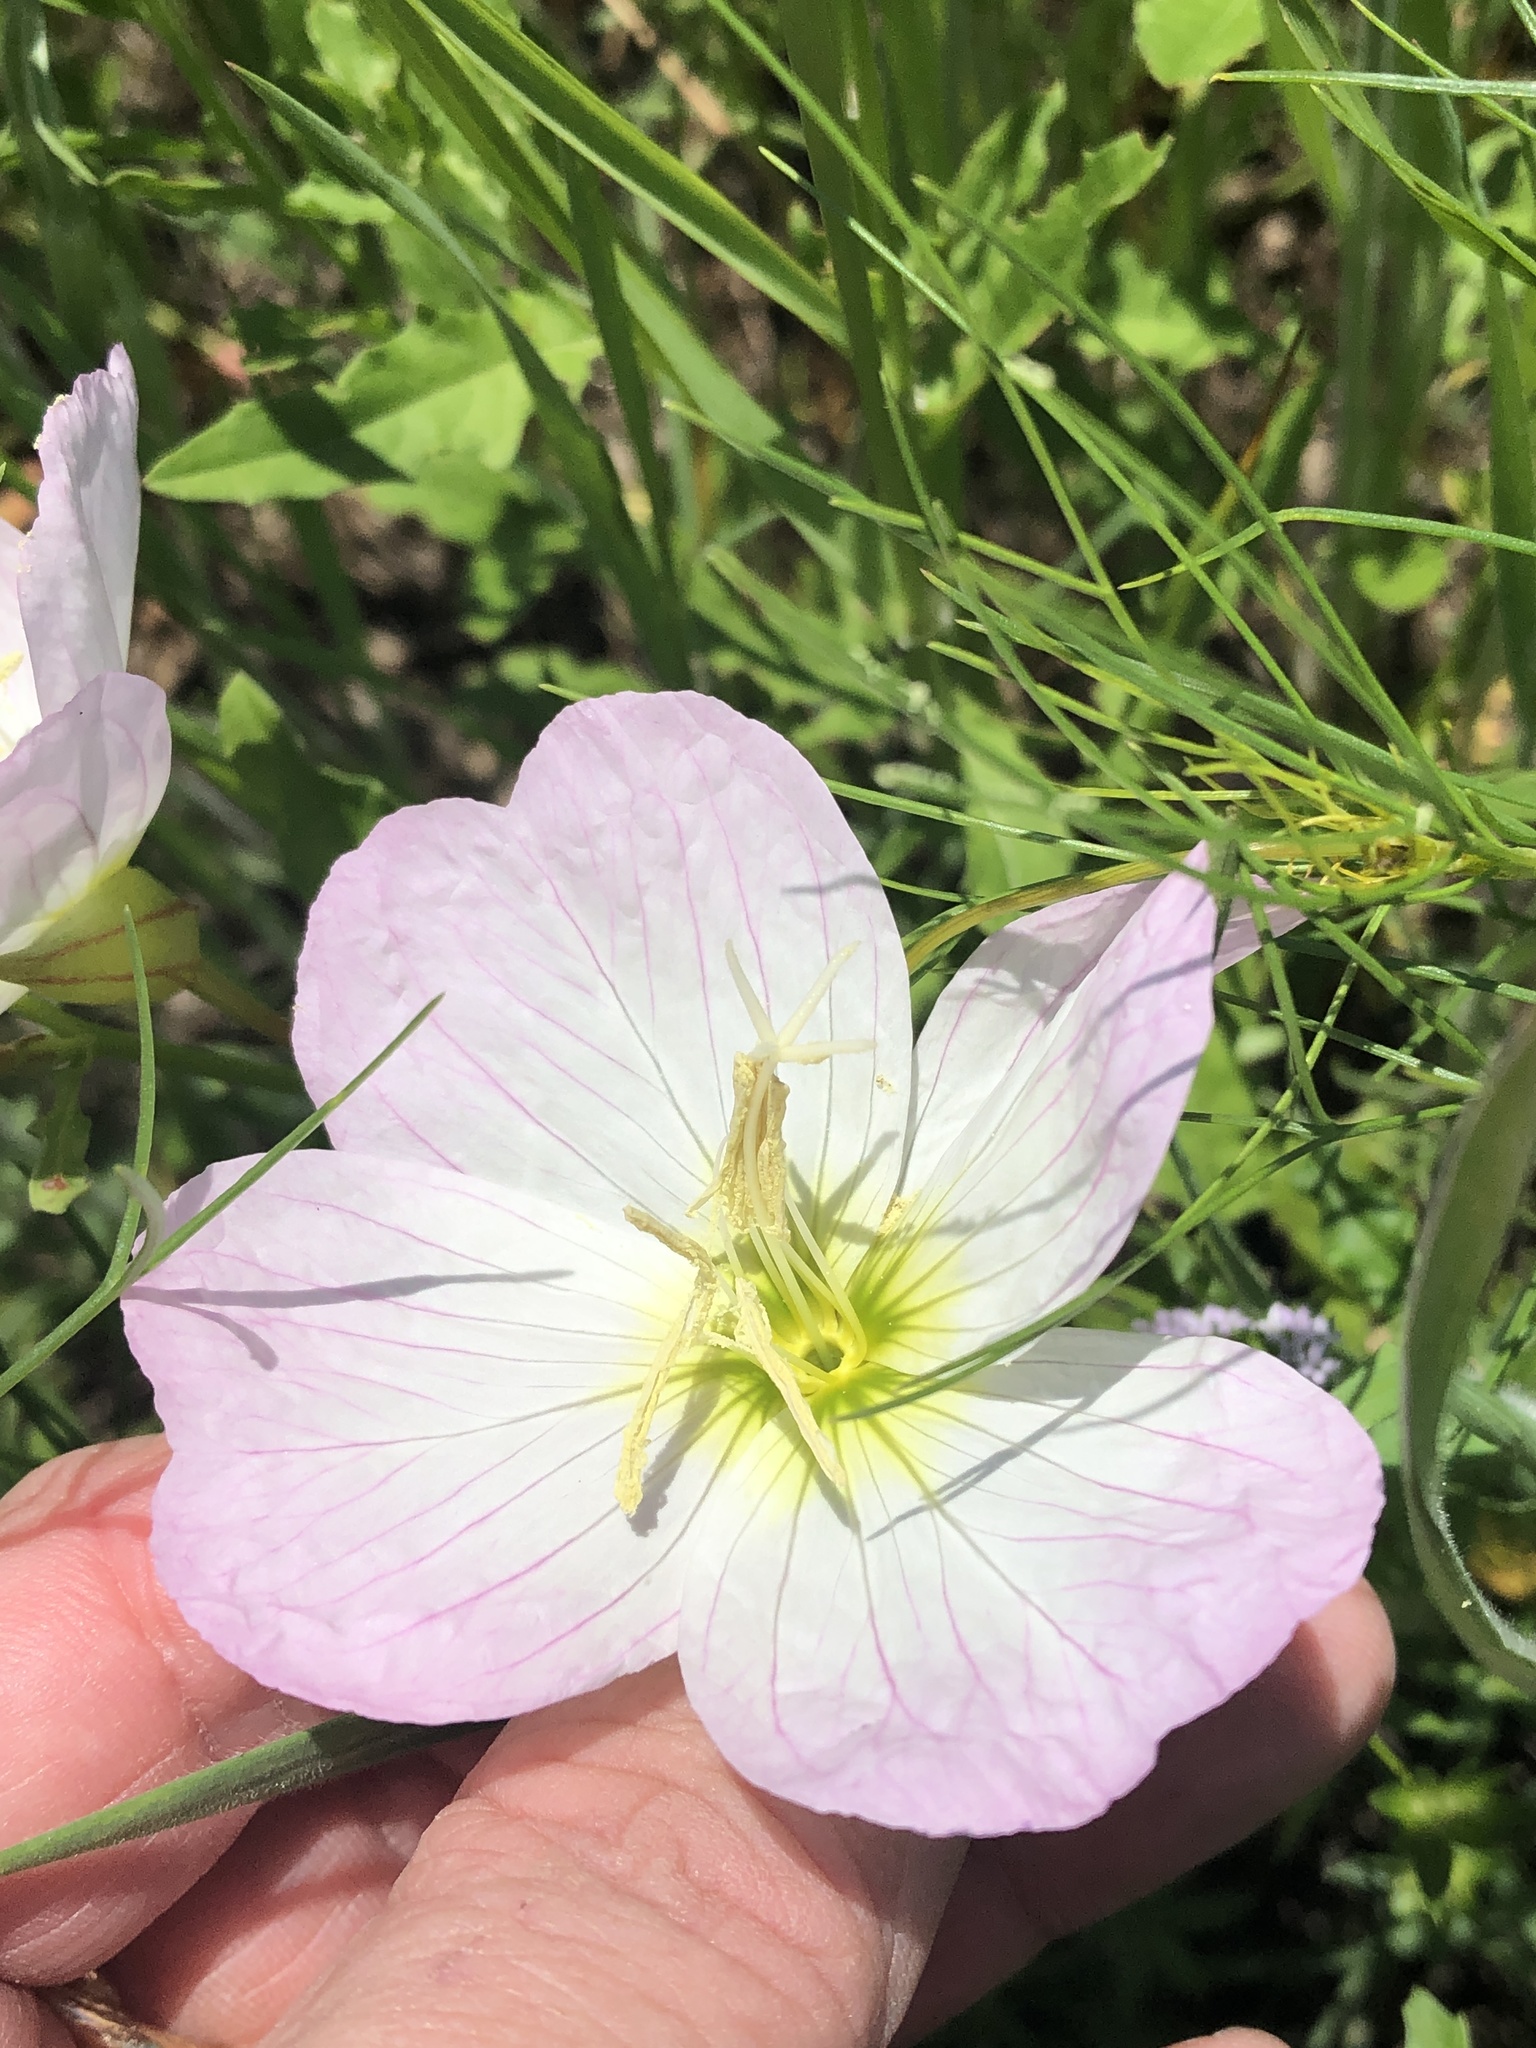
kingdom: Plantae
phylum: Tracheophyta
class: Magnoliopsida
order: Myrtales
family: Onagraceae
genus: Oenothera
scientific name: Oenothera speciosa
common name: White evening-primrose
